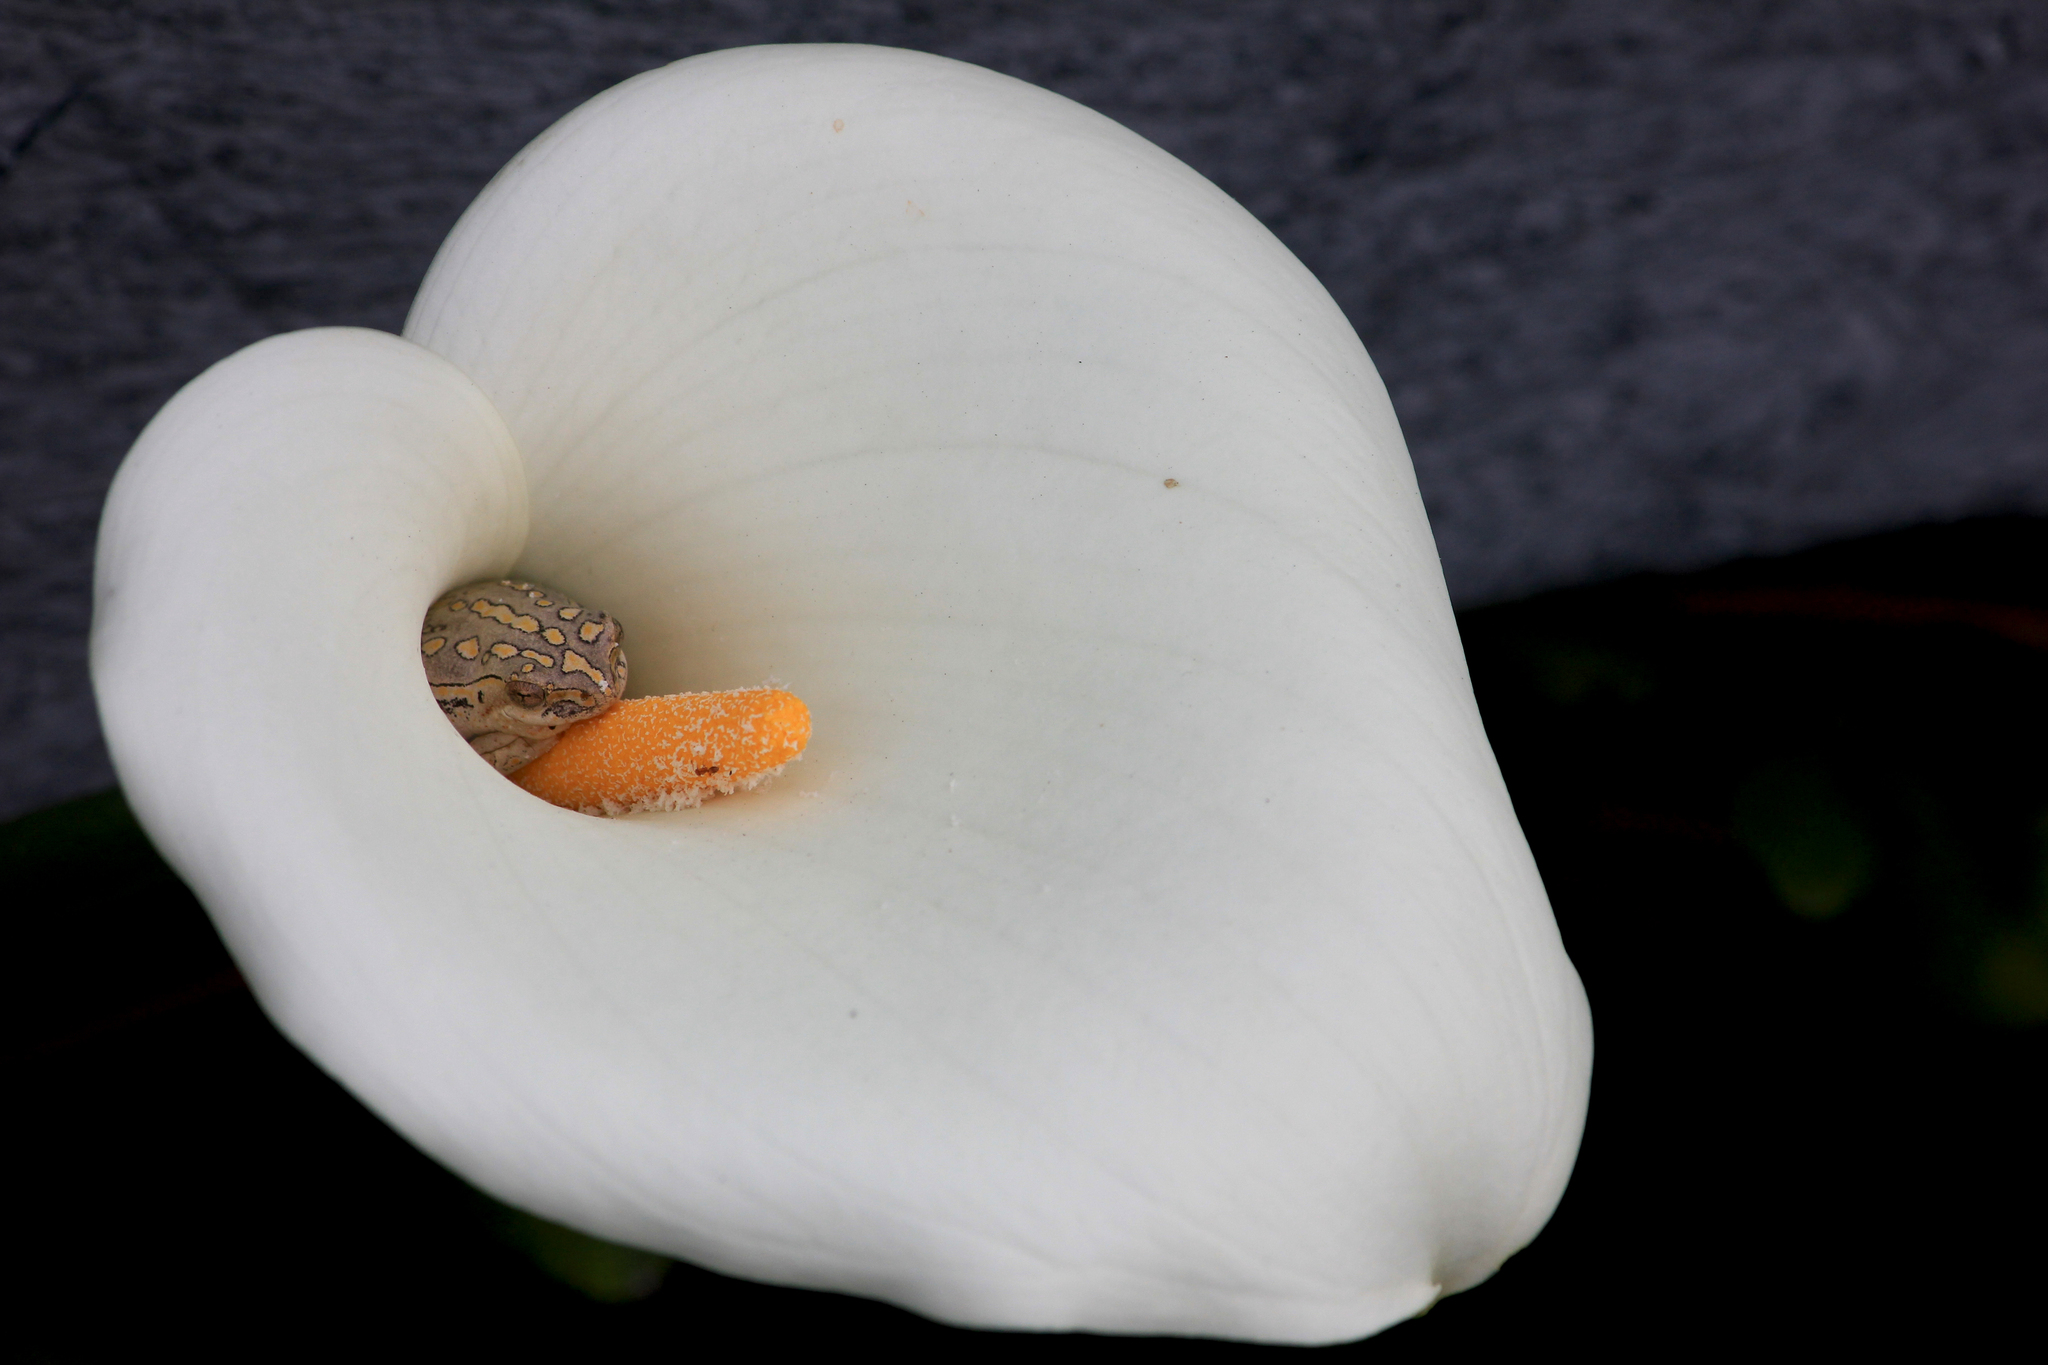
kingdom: Animalia
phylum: Chordata
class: Amphibia
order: Anura
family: Hyperoliidae
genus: Hyperolius
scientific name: Hyperolius marmoratus
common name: Painted reed frog
